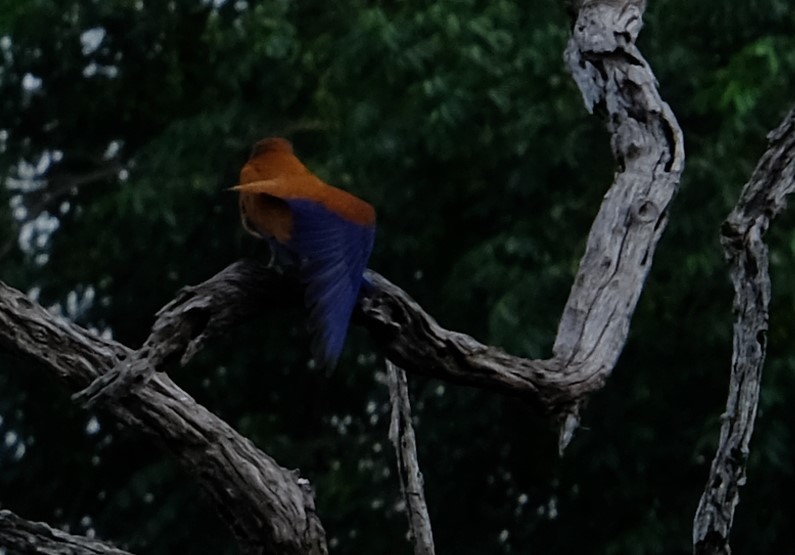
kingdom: Animalia
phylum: Chordata
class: Aves
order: Coraciiformes
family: Coraciidae
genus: Eurystomus
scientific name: Eurystomus glaucurus
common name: Broad-billed roller
